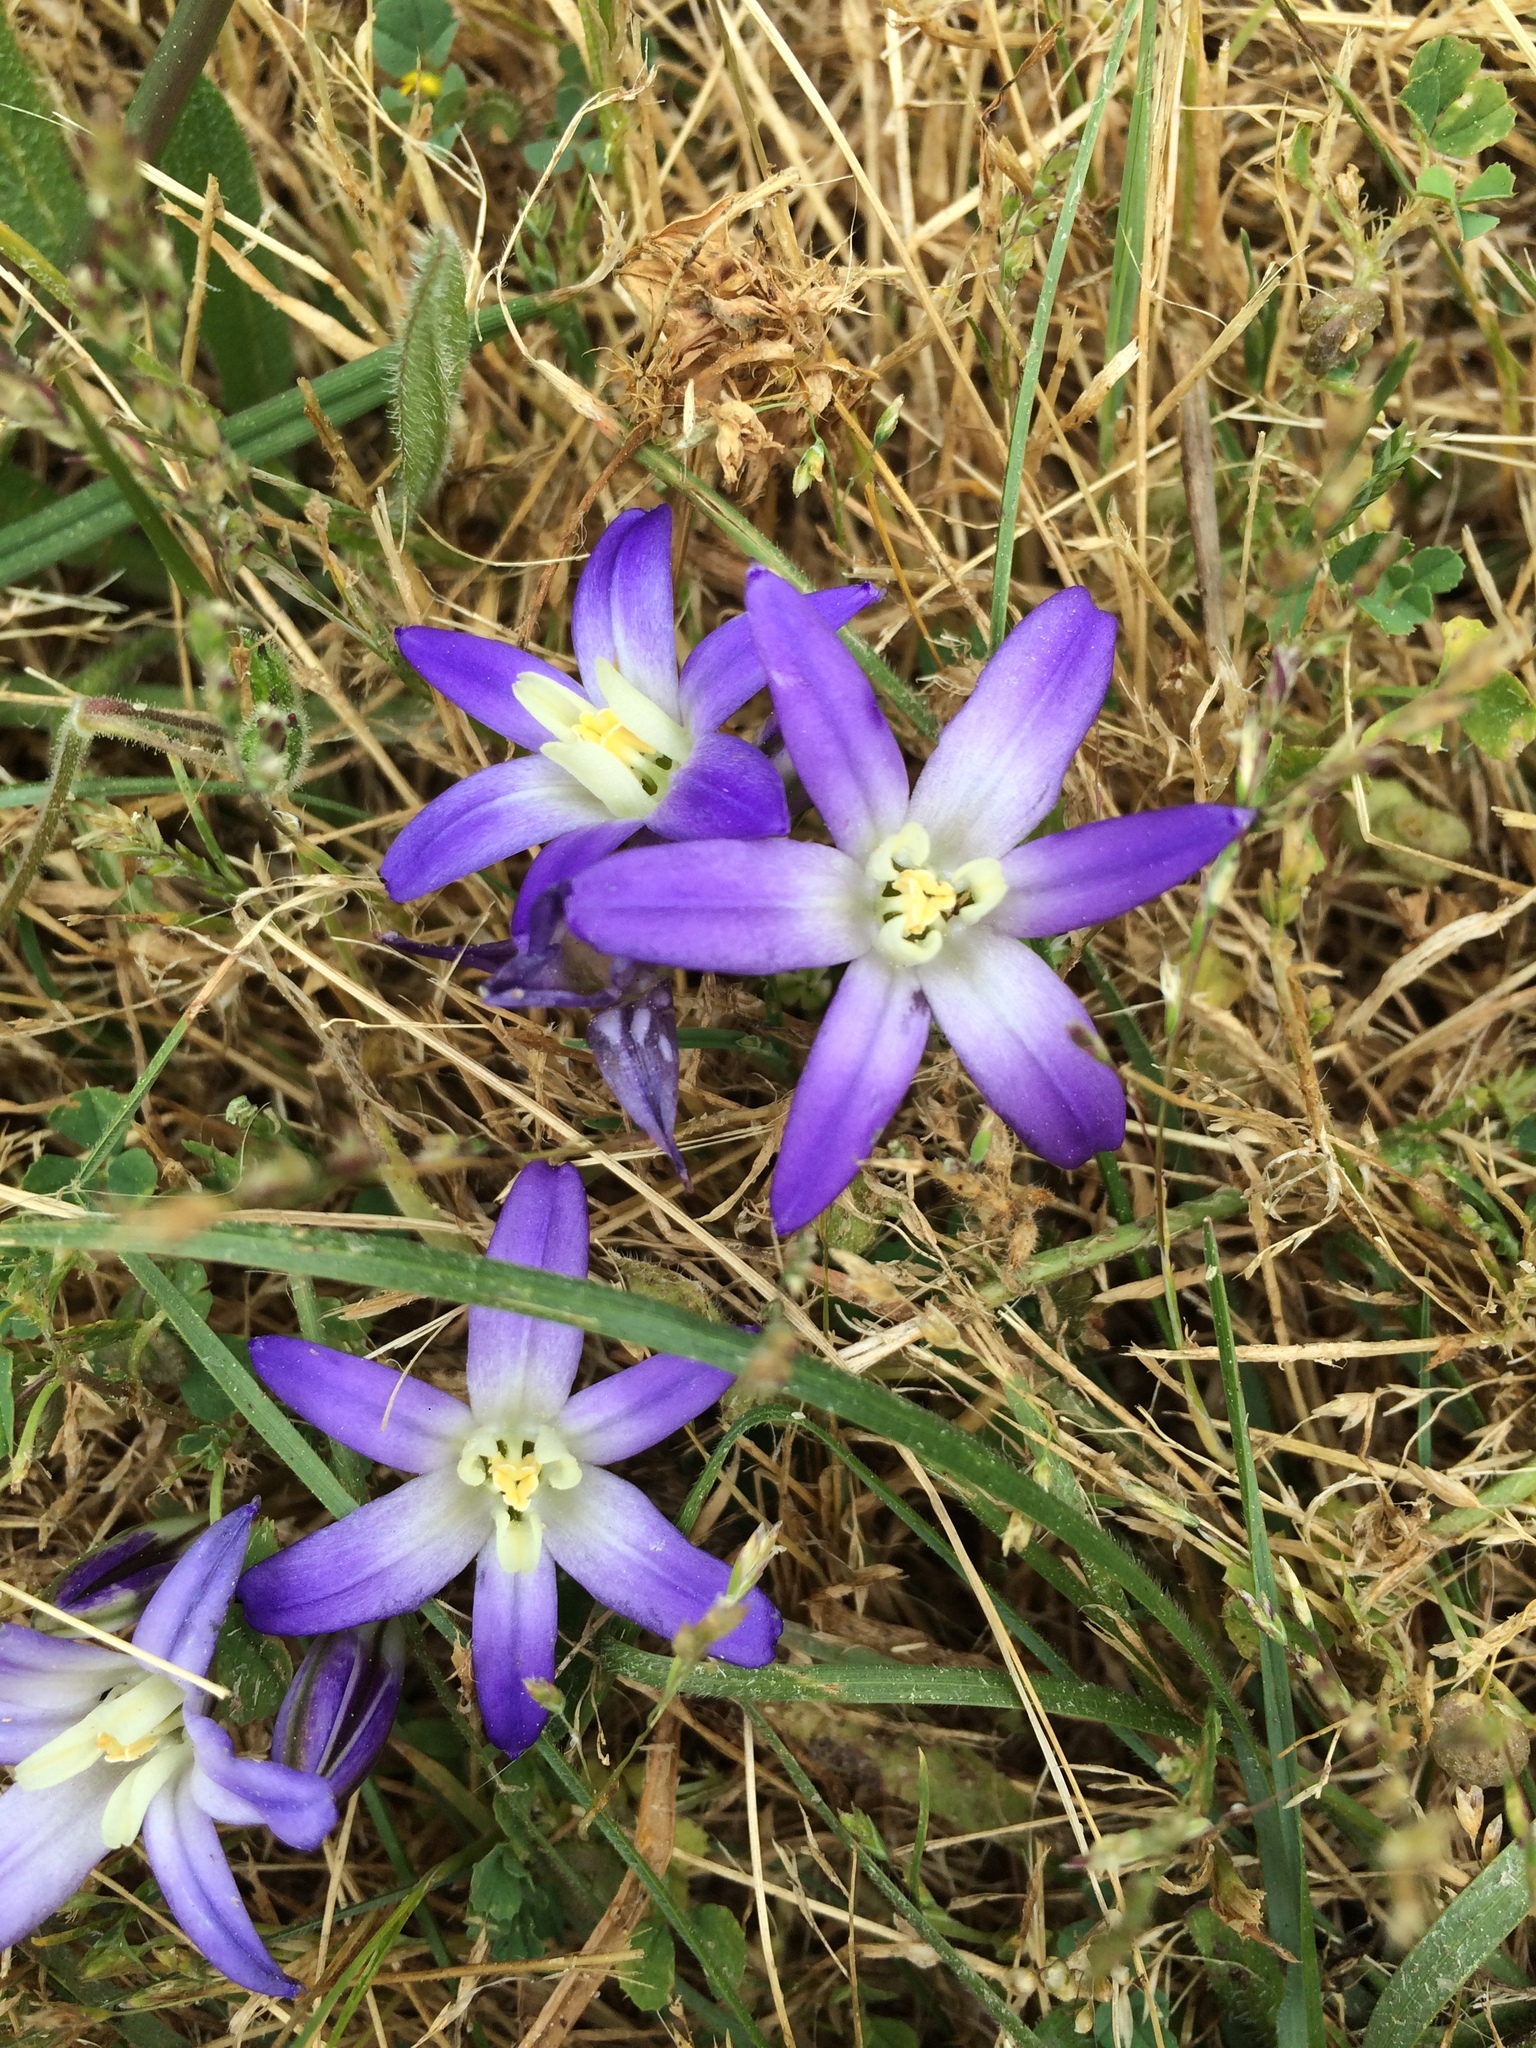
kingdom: Plantae
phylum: Tracheophyta
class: Liliopsida
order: Asparagales
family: Asparagaceae
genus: Brodiaea
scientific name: Brodiaea terrestris
